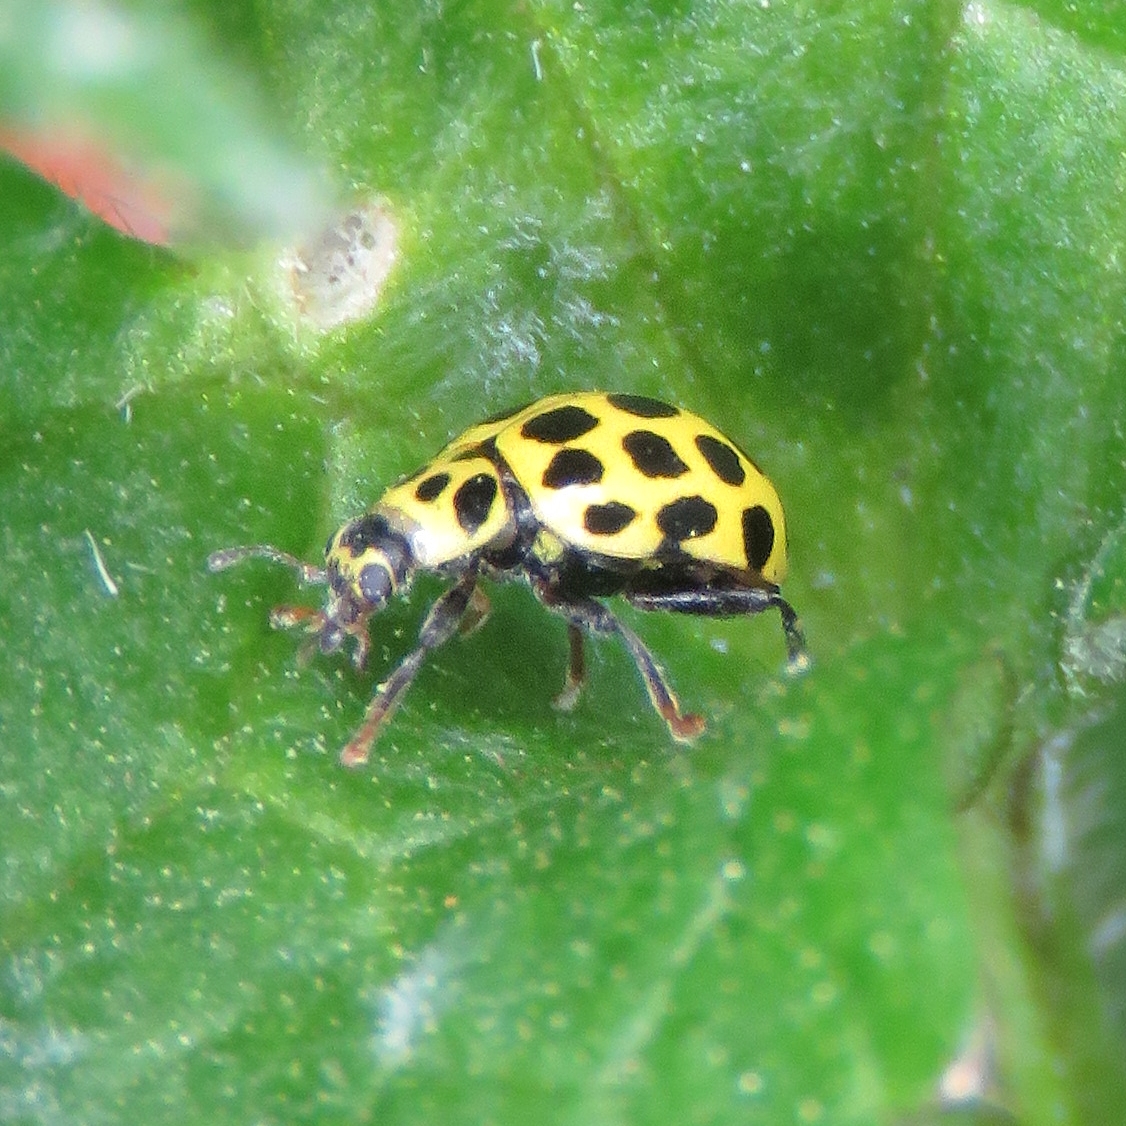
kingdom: Animalia
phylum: Arthropoda
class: Insecta
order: Coleoptera
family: Coccinellidae
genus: Psyllobora
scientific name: Psyllobora vigintiduopunctata
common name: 22-spot ladybird
